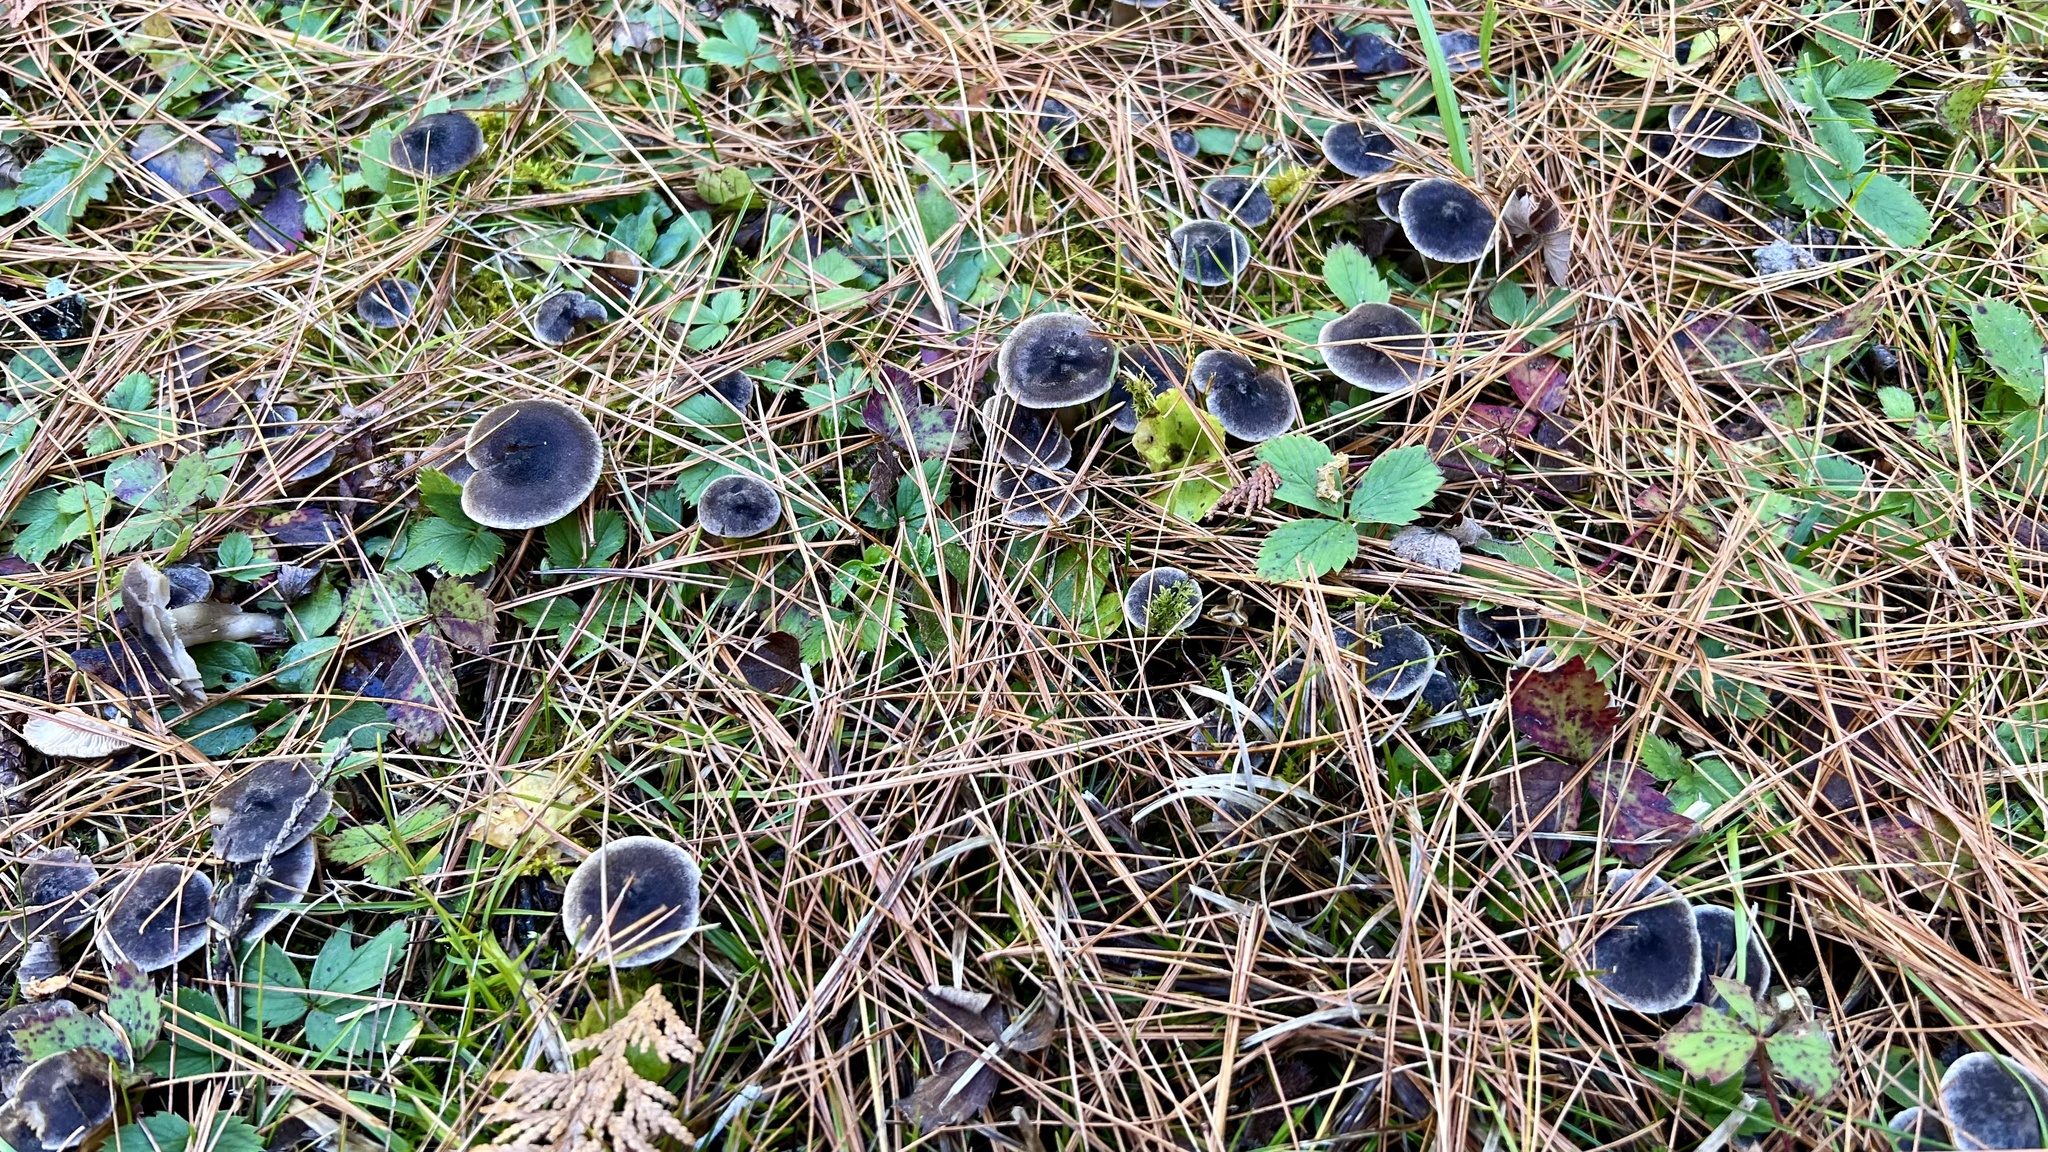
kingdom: Fungi
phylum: Basidiomycota
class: Agaricomycetes
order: Agaricales
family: Tricholomataceae
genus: Tricholoma
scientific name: Tricholoma terreum
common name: Grey knight
